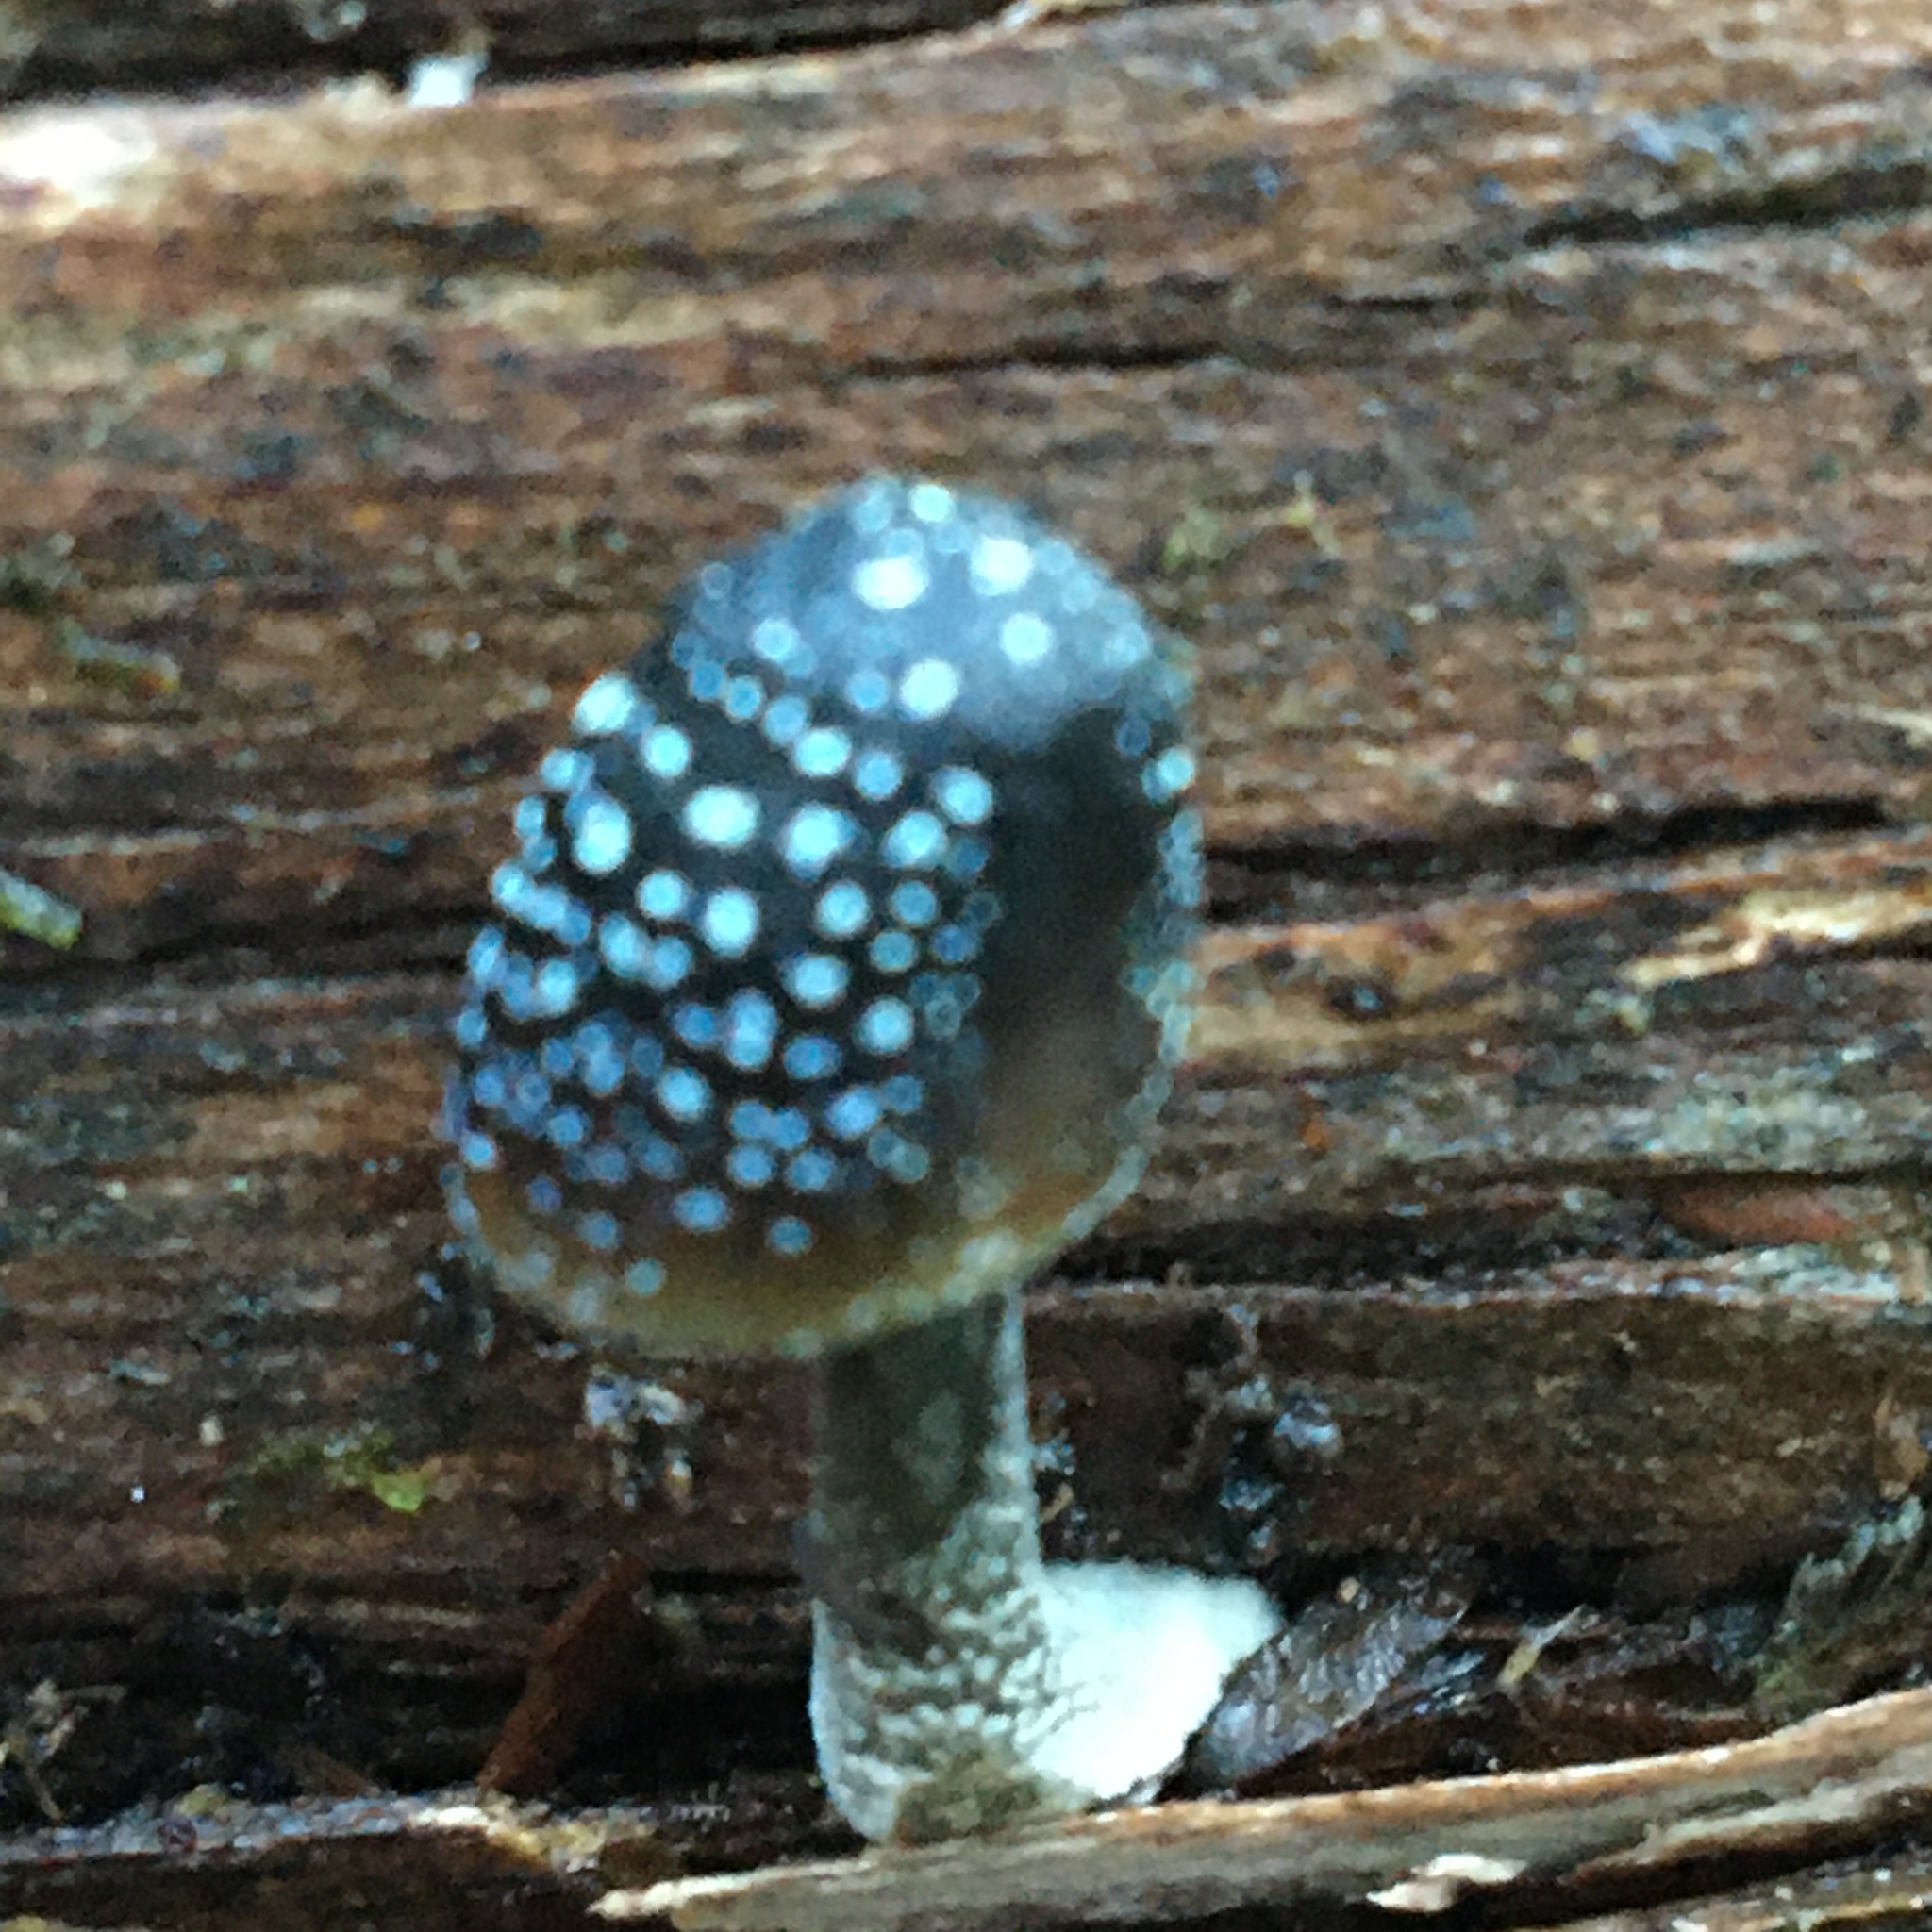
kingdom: Fungi
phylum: Basidiomycota
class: Agaricomycetes
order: Agaricales
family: Mycenaceae
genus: Mycena
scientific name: Mycena nargan
